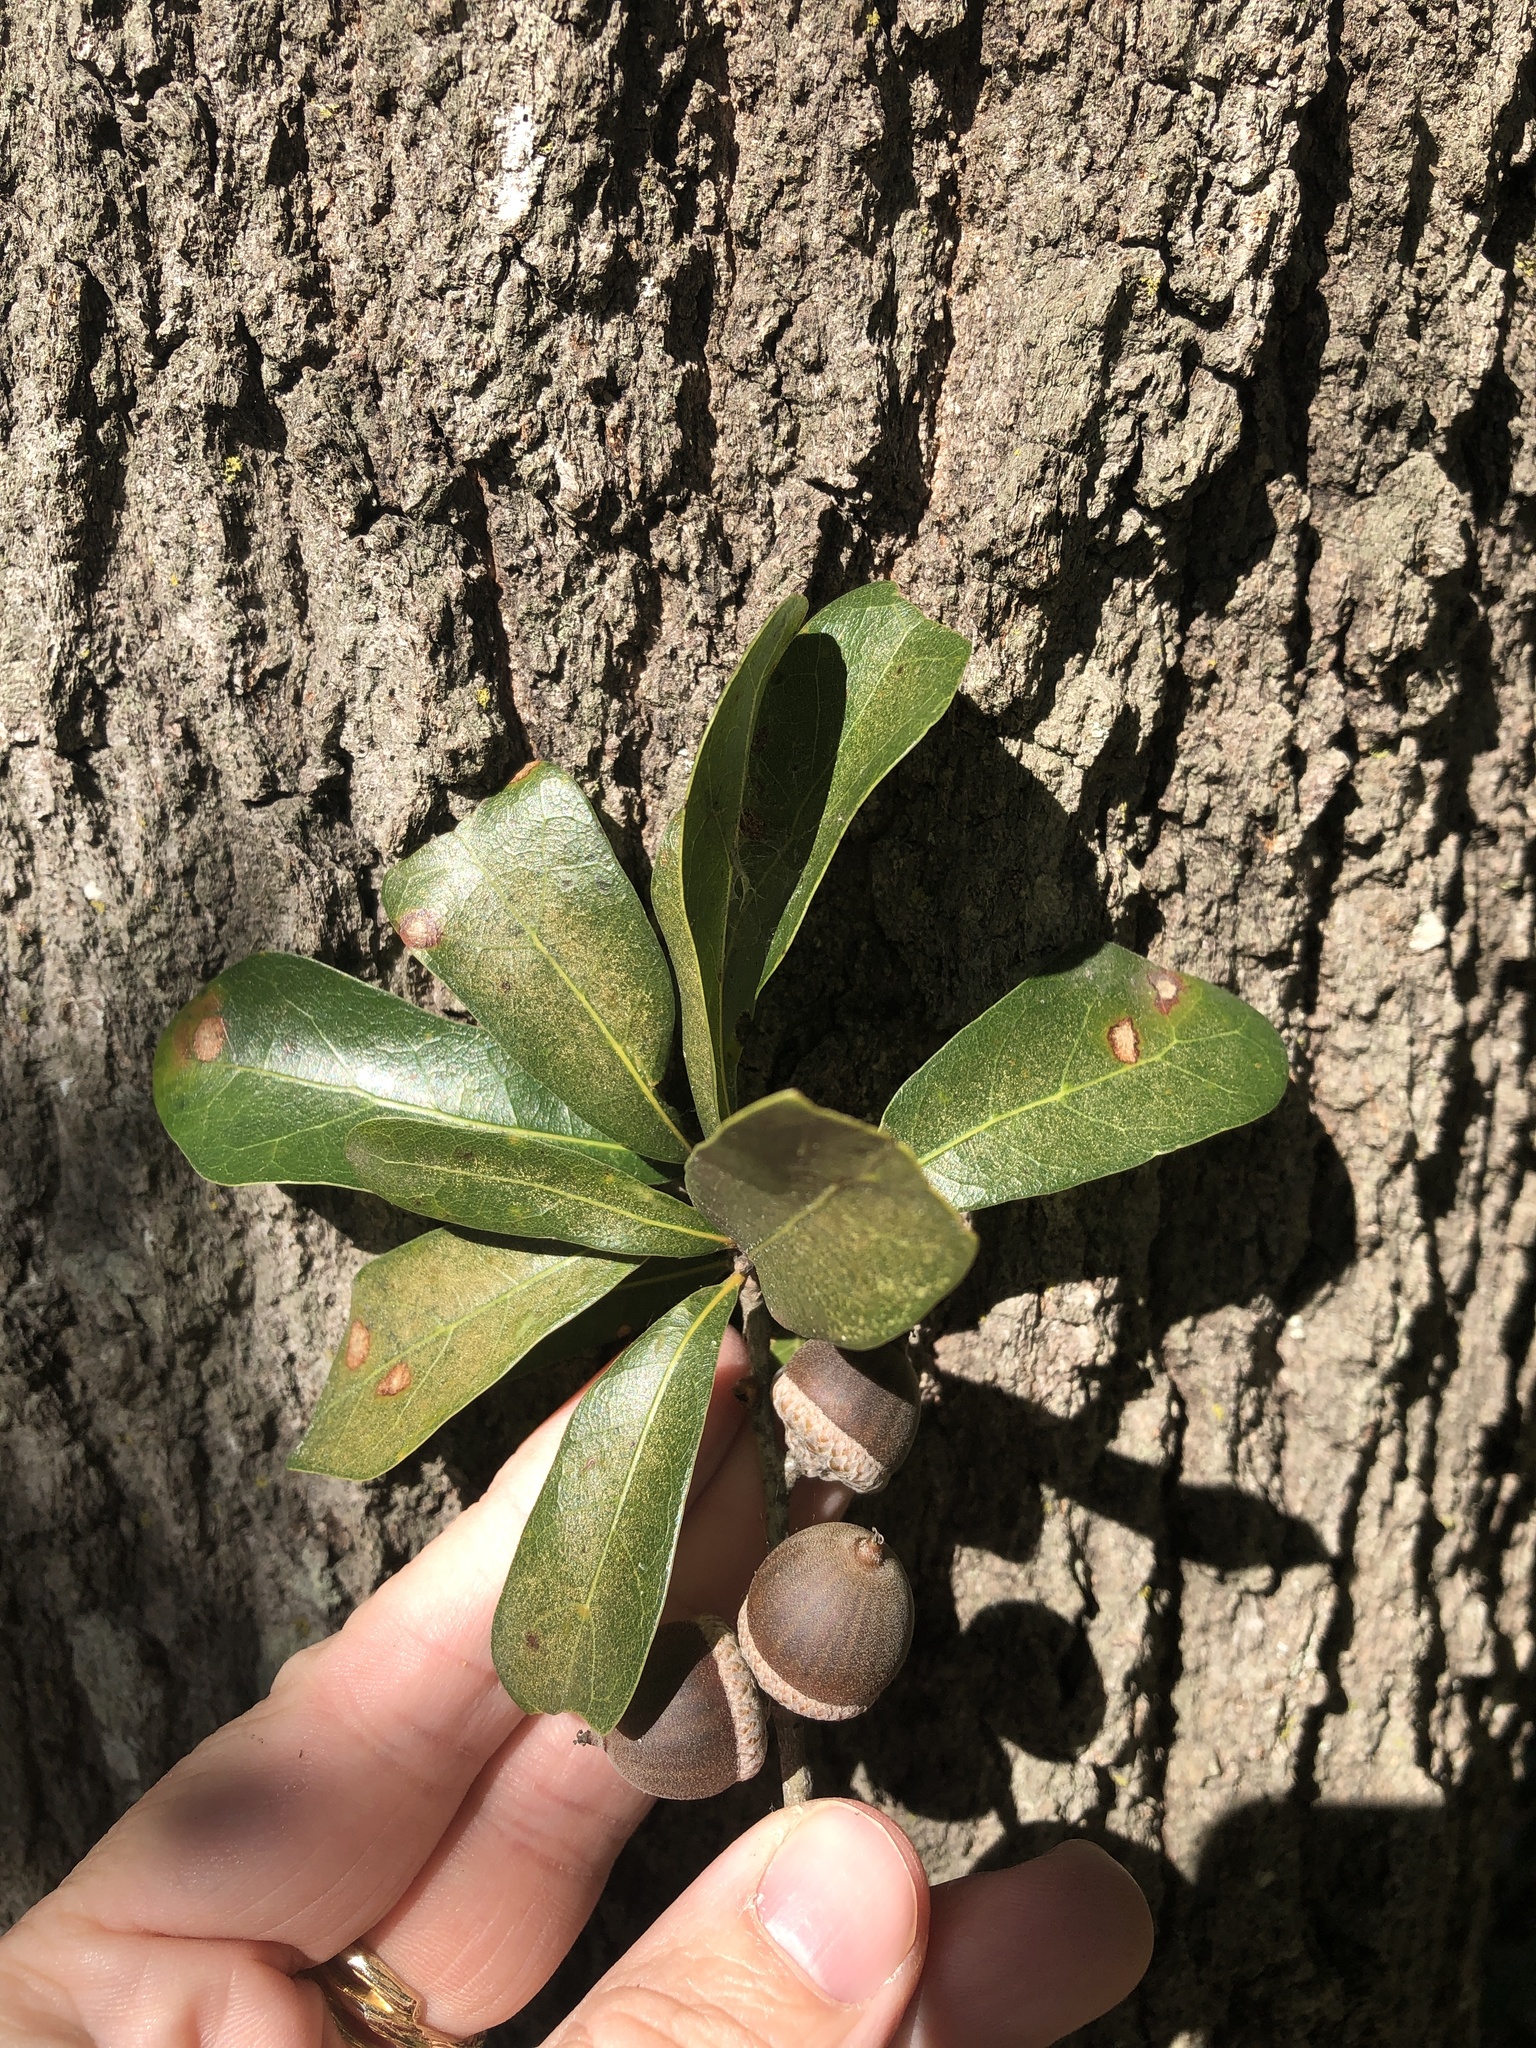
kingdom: Plantae
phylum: Tracheophyta
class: Magnoliopsida
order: Fagales
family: Fagaceae
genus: Quercus
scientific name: Quercus nigra
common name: Water oak
